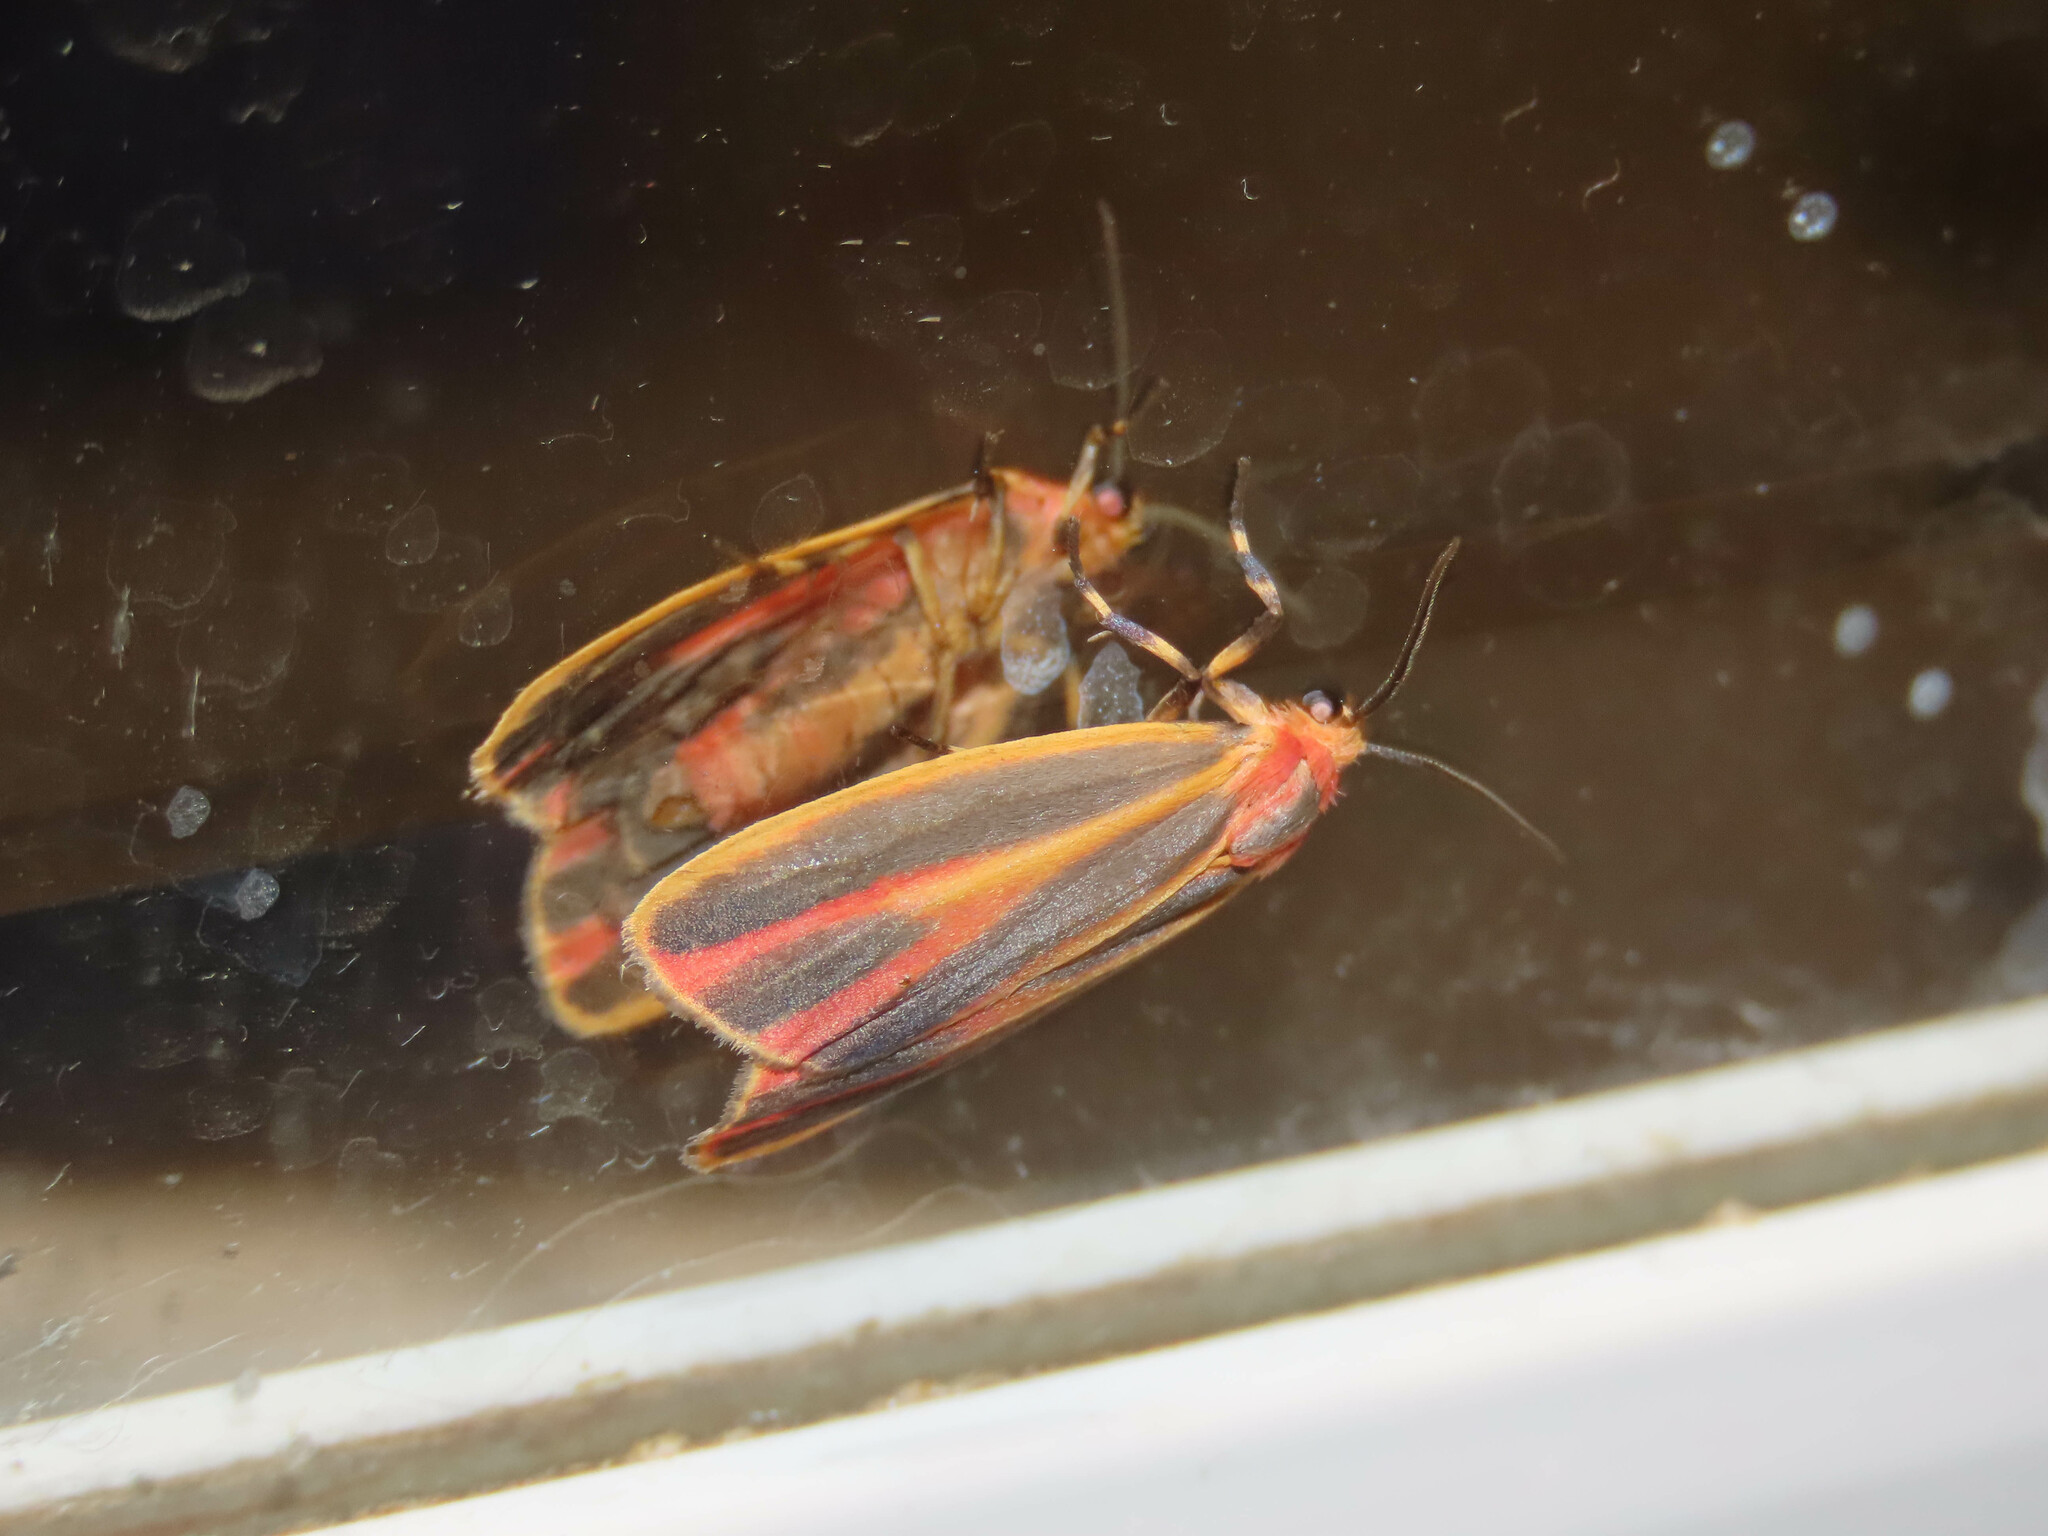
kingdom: Animalia
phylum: Arthropoda
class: Insecta
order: Lepidoptera
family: Erebidae
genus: Hypoprepia
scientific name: Hypoprepia fucosa
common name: Painted lichen moth
